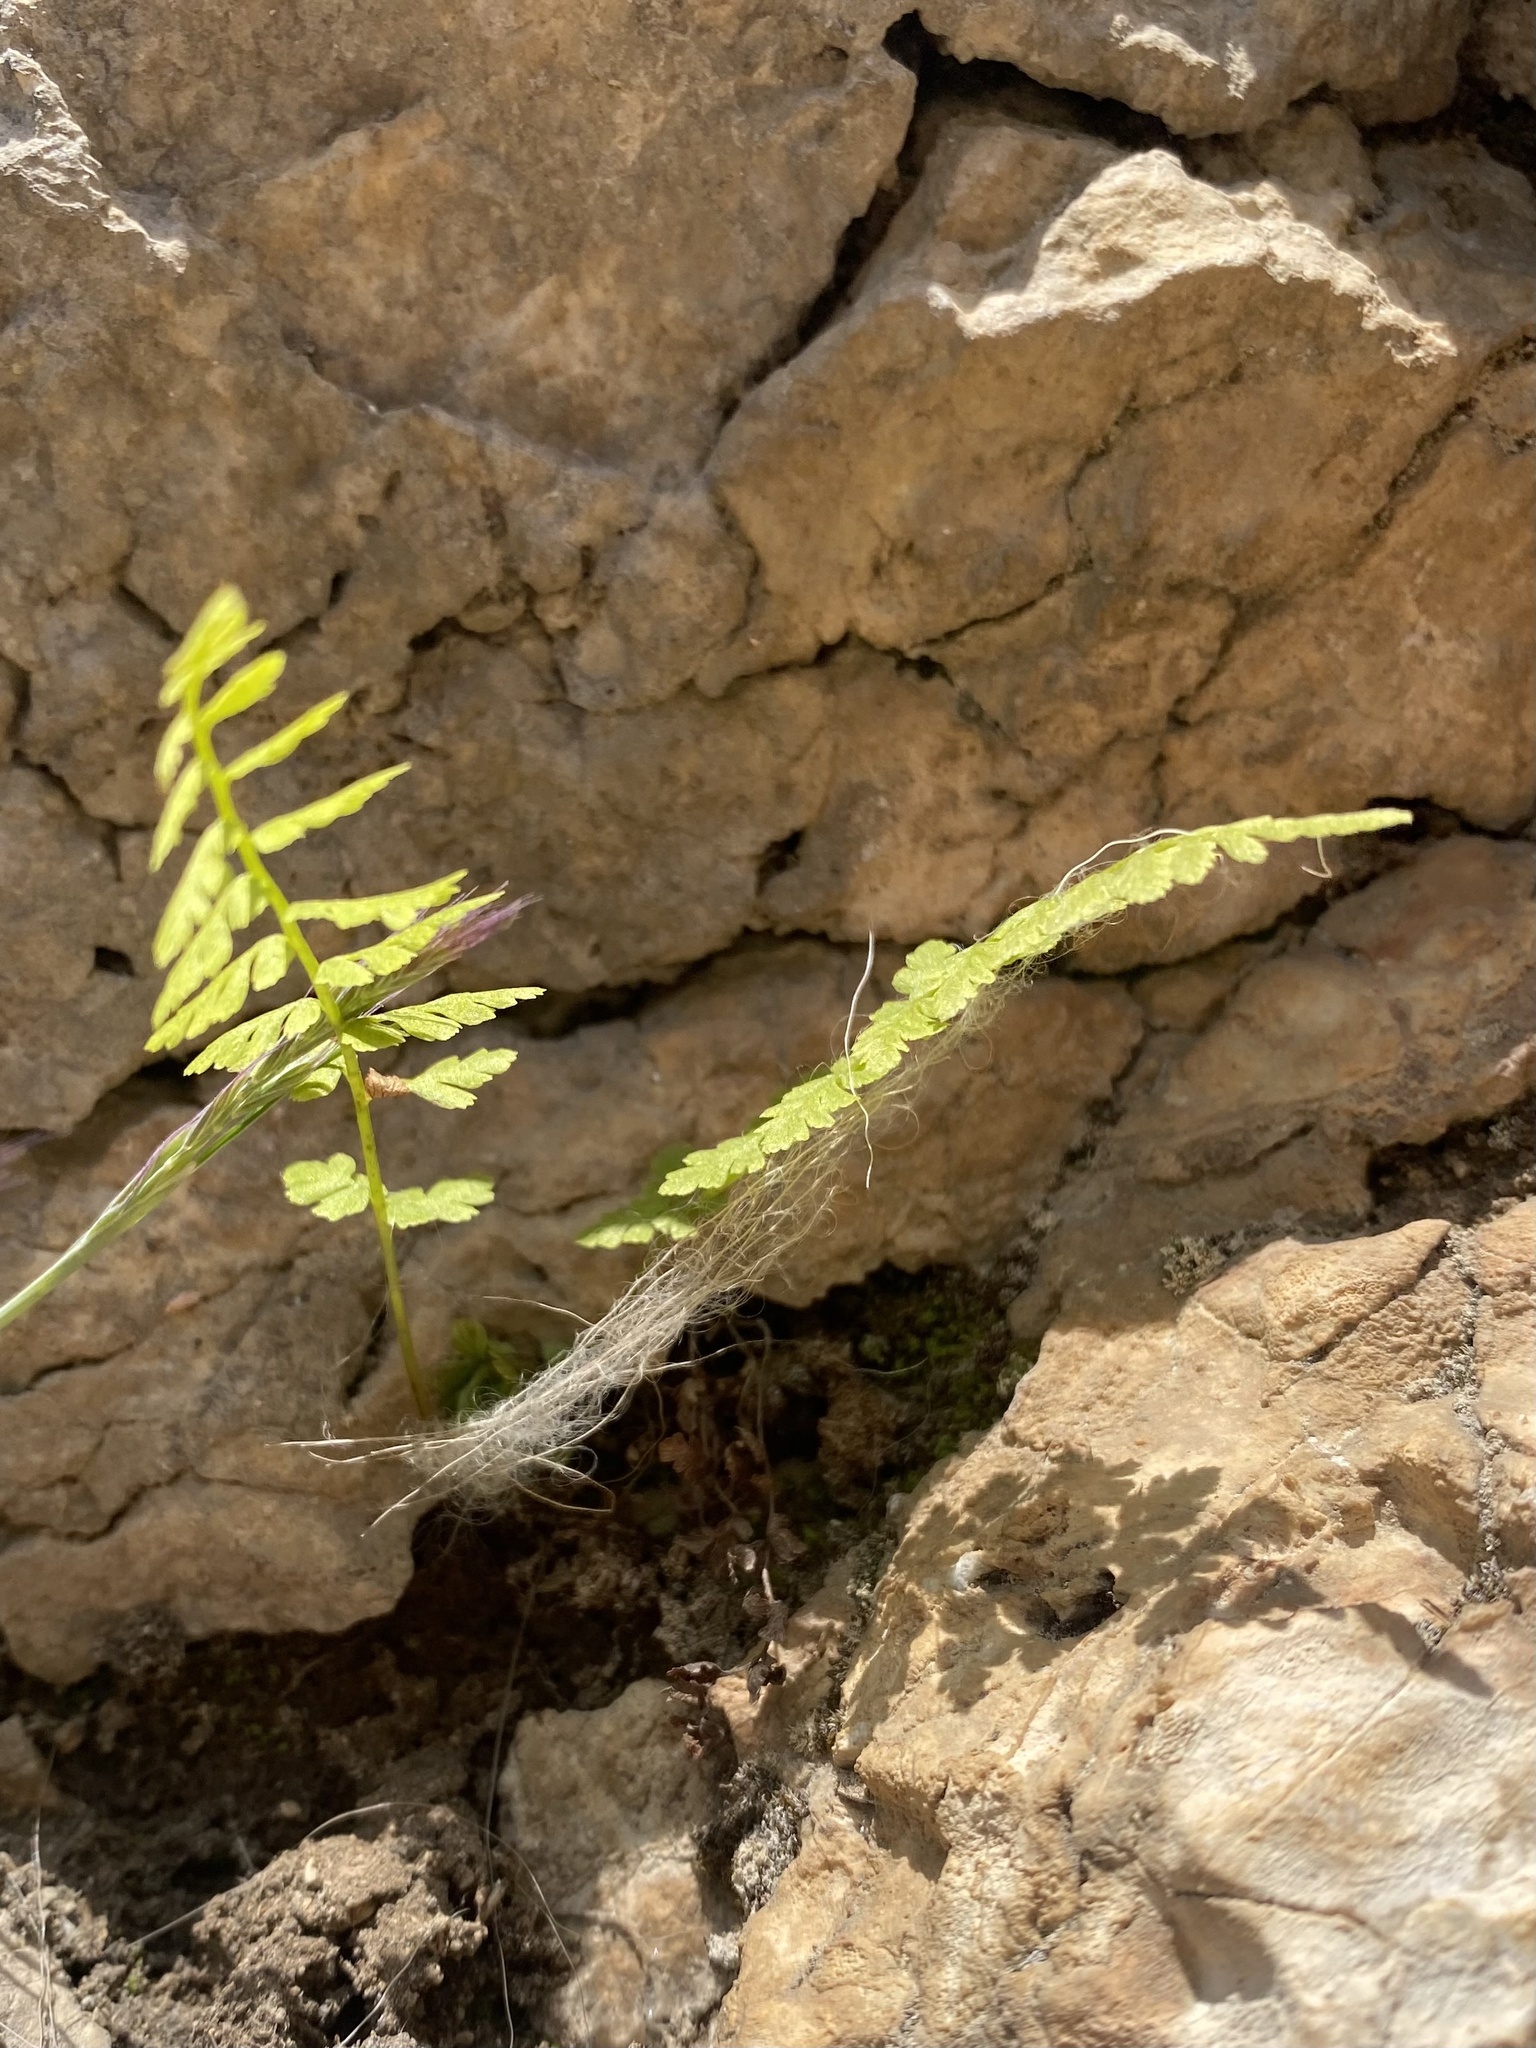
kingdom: Plantae
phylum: Tracheophyta
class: Polypodiopsida
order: Polypodiales
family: Cystopteridaceae
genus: Cystopteris
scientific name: Cystopteris fragilis
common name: Brittle bladder fern
